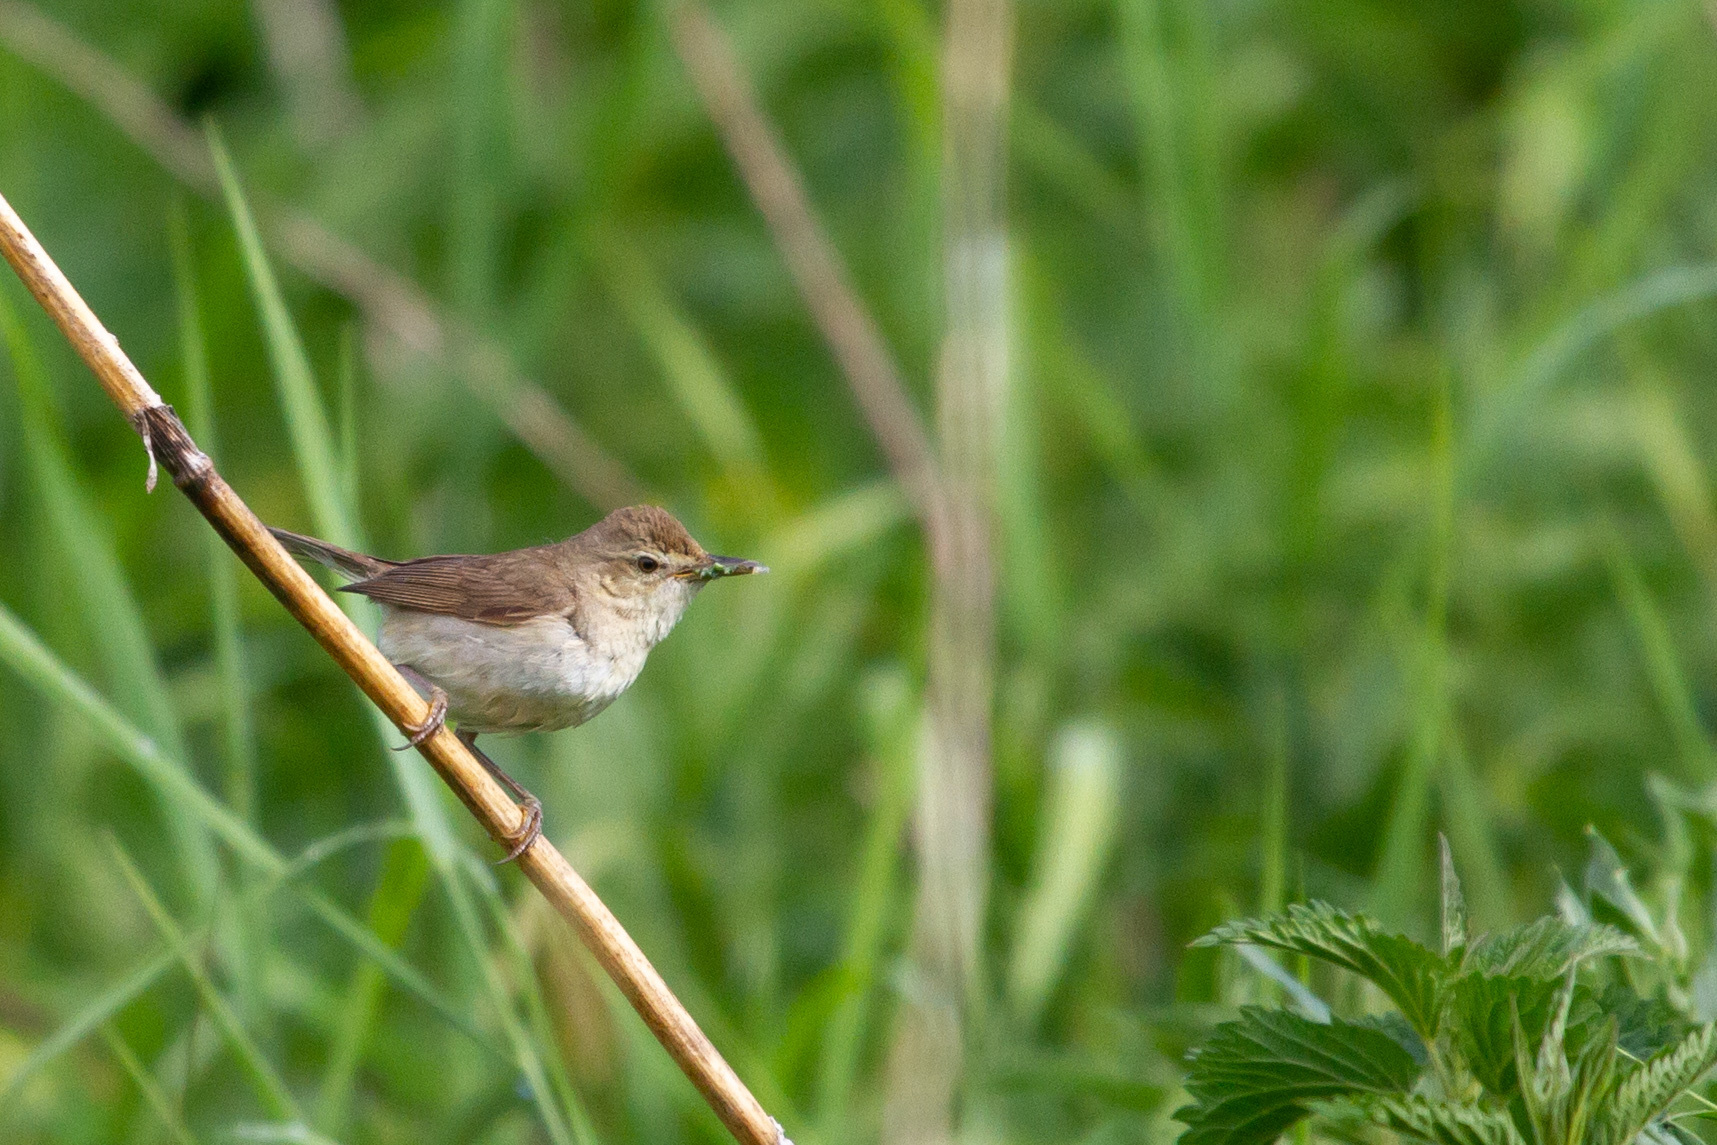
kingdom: Animalia
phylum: Chordata
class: Aves
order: Passeriformes
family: Acrocephalidae
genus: Acrocephalus
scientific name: Acrocephalus dumetorum
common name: Blyth's reed warbler
